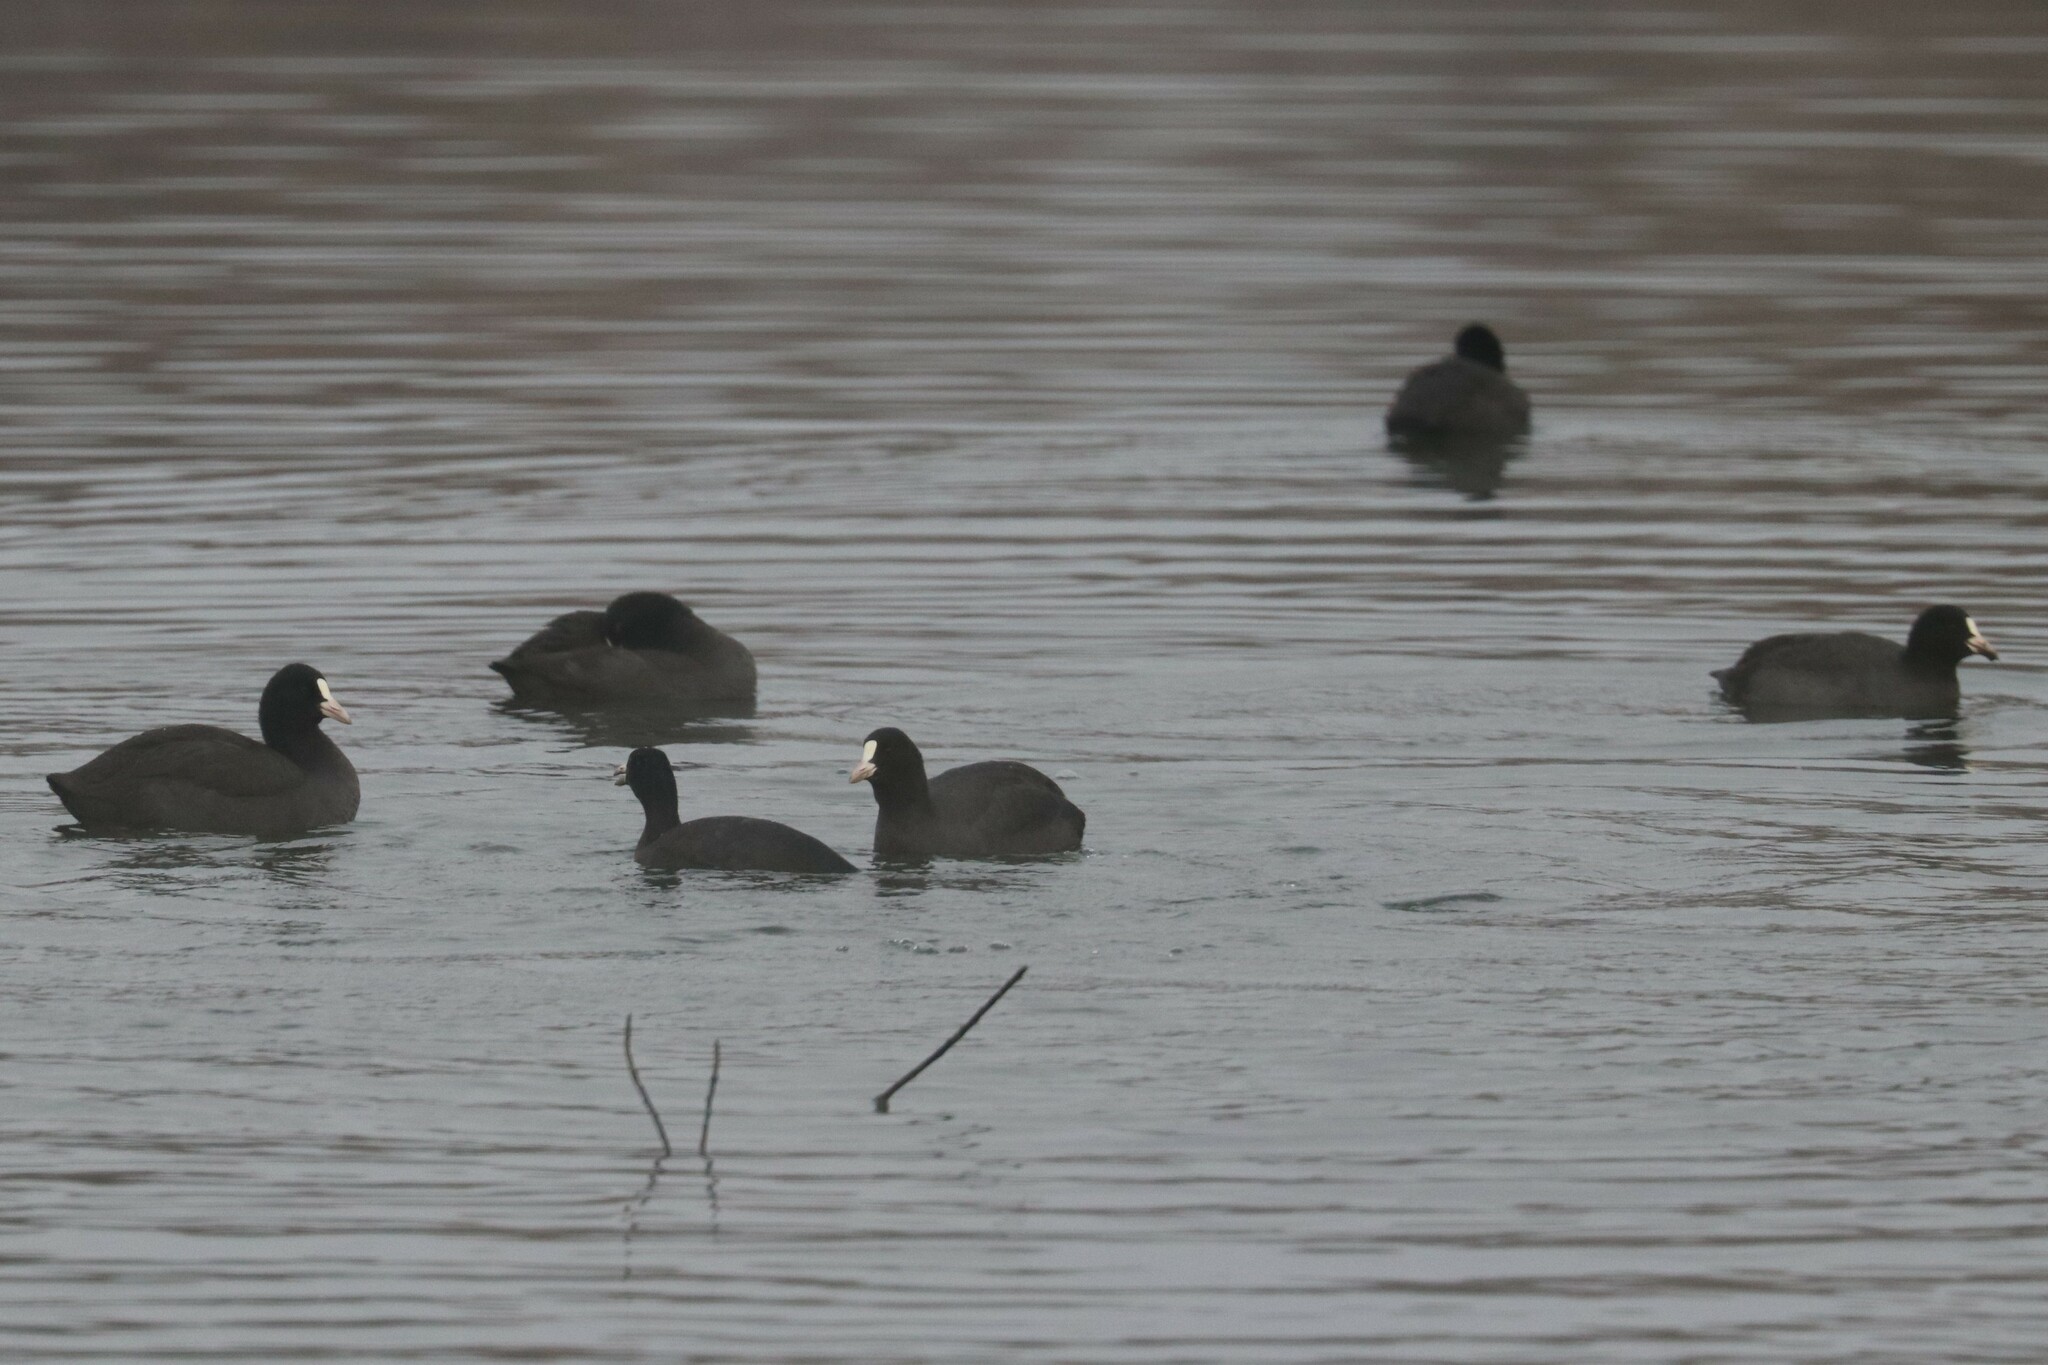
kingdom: Animalia
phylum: Chordata
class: Aves
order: Gruiformes
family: Rallidae
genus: Fulica
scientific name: Fulica atra
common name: Eurasian coot
